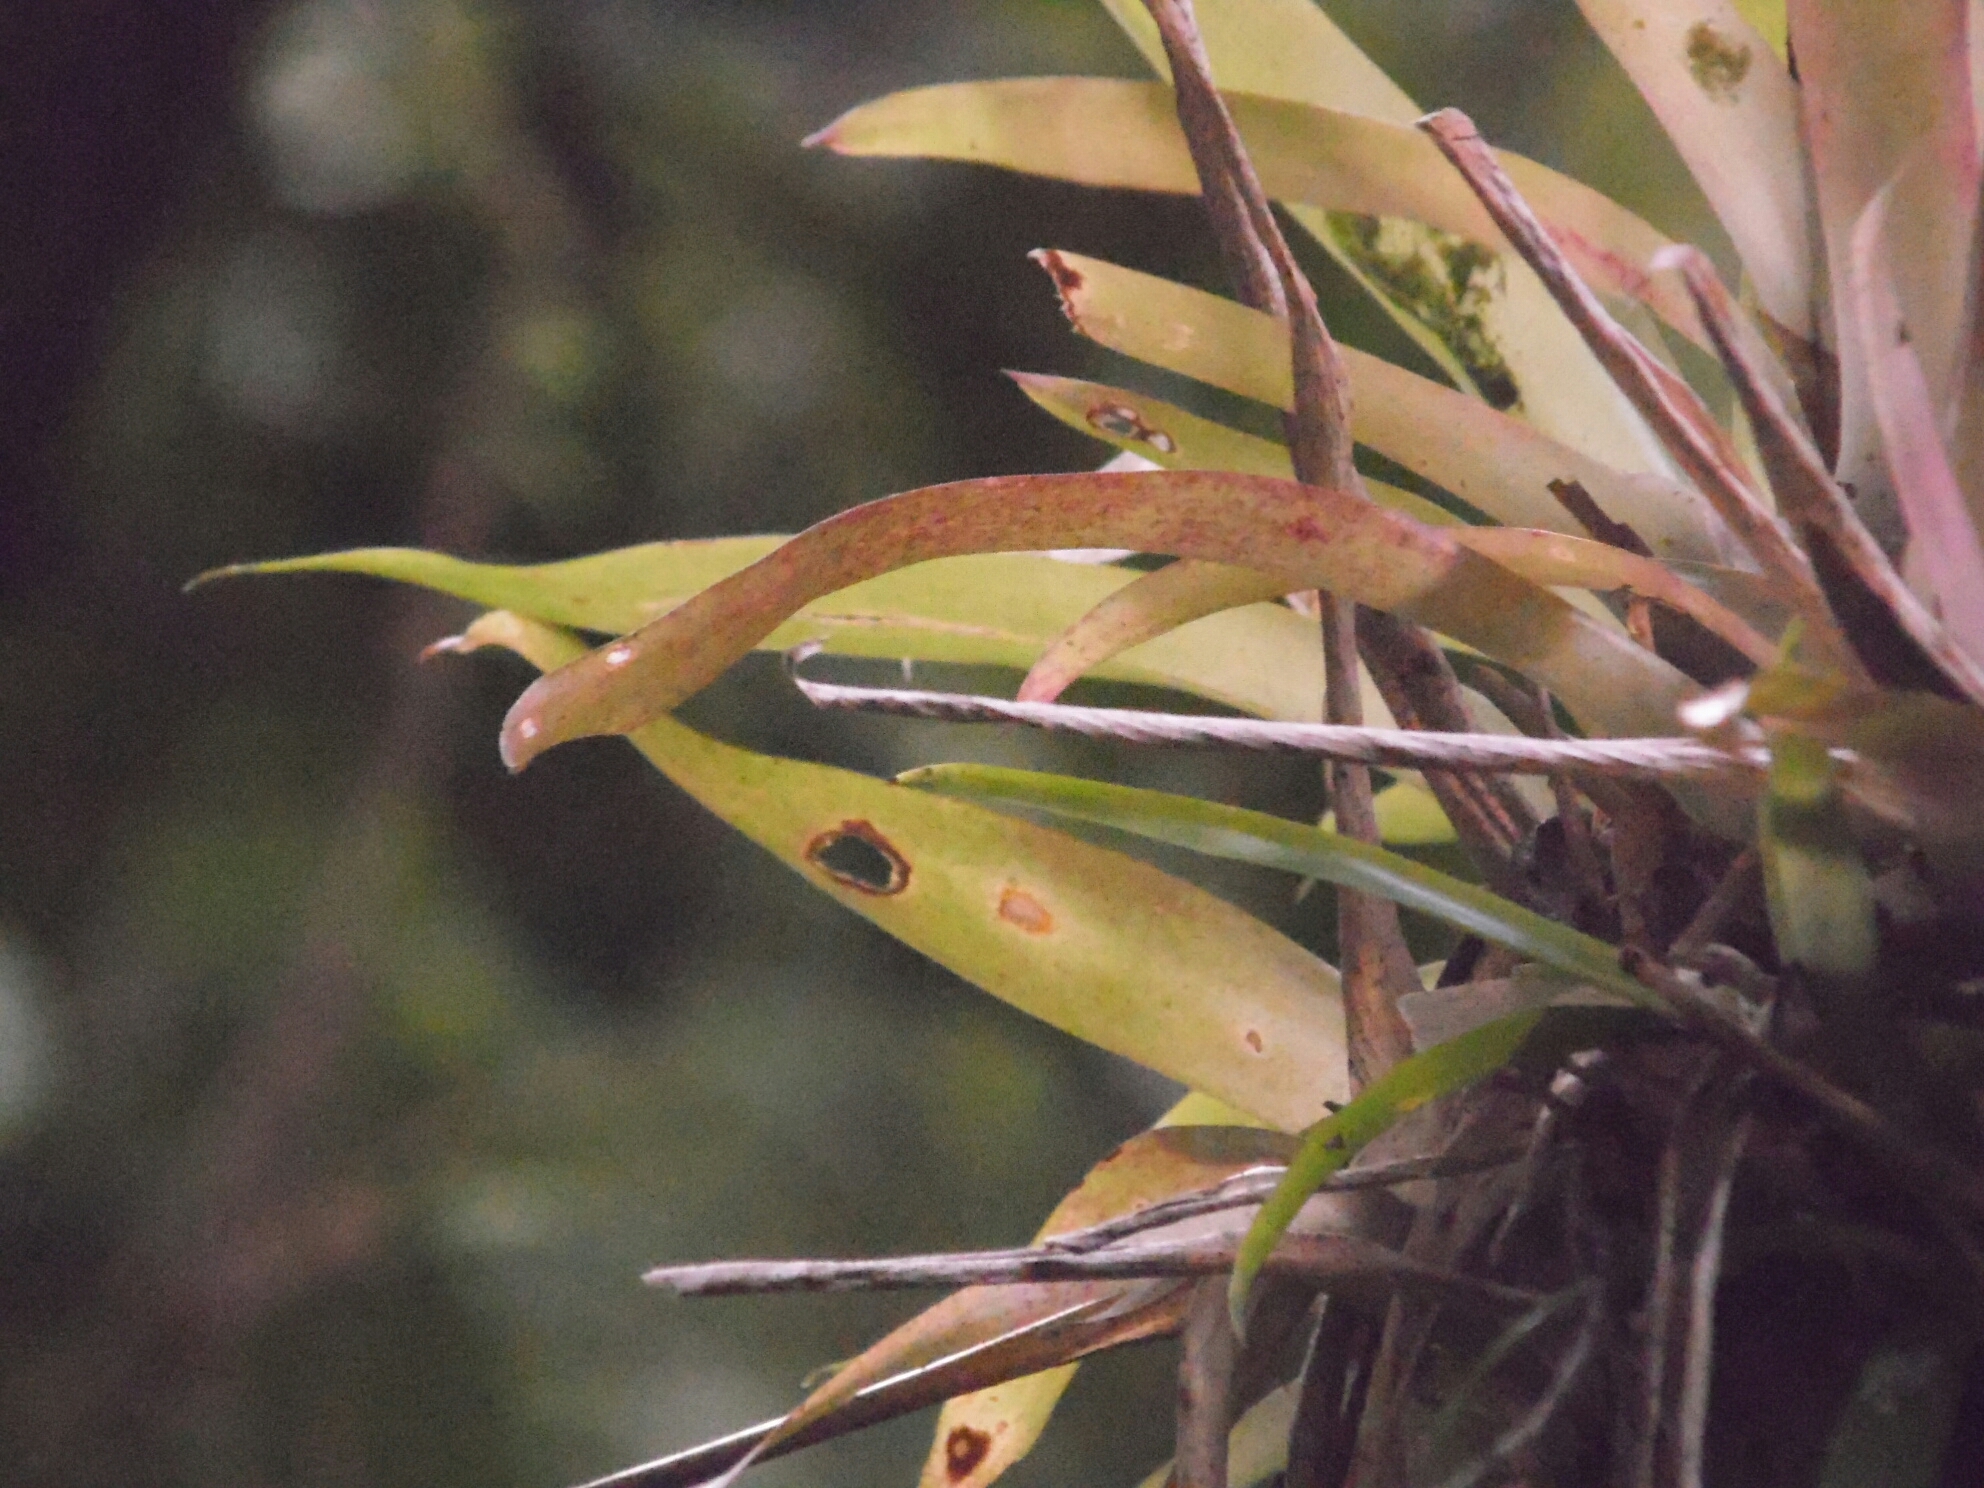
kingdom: Plantae
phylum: Tracheophyta
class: Liliopsida
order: Poales
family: Bromeliaceae
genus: Vriesea
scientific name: Vriesea carinata
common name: Lobster-claws
